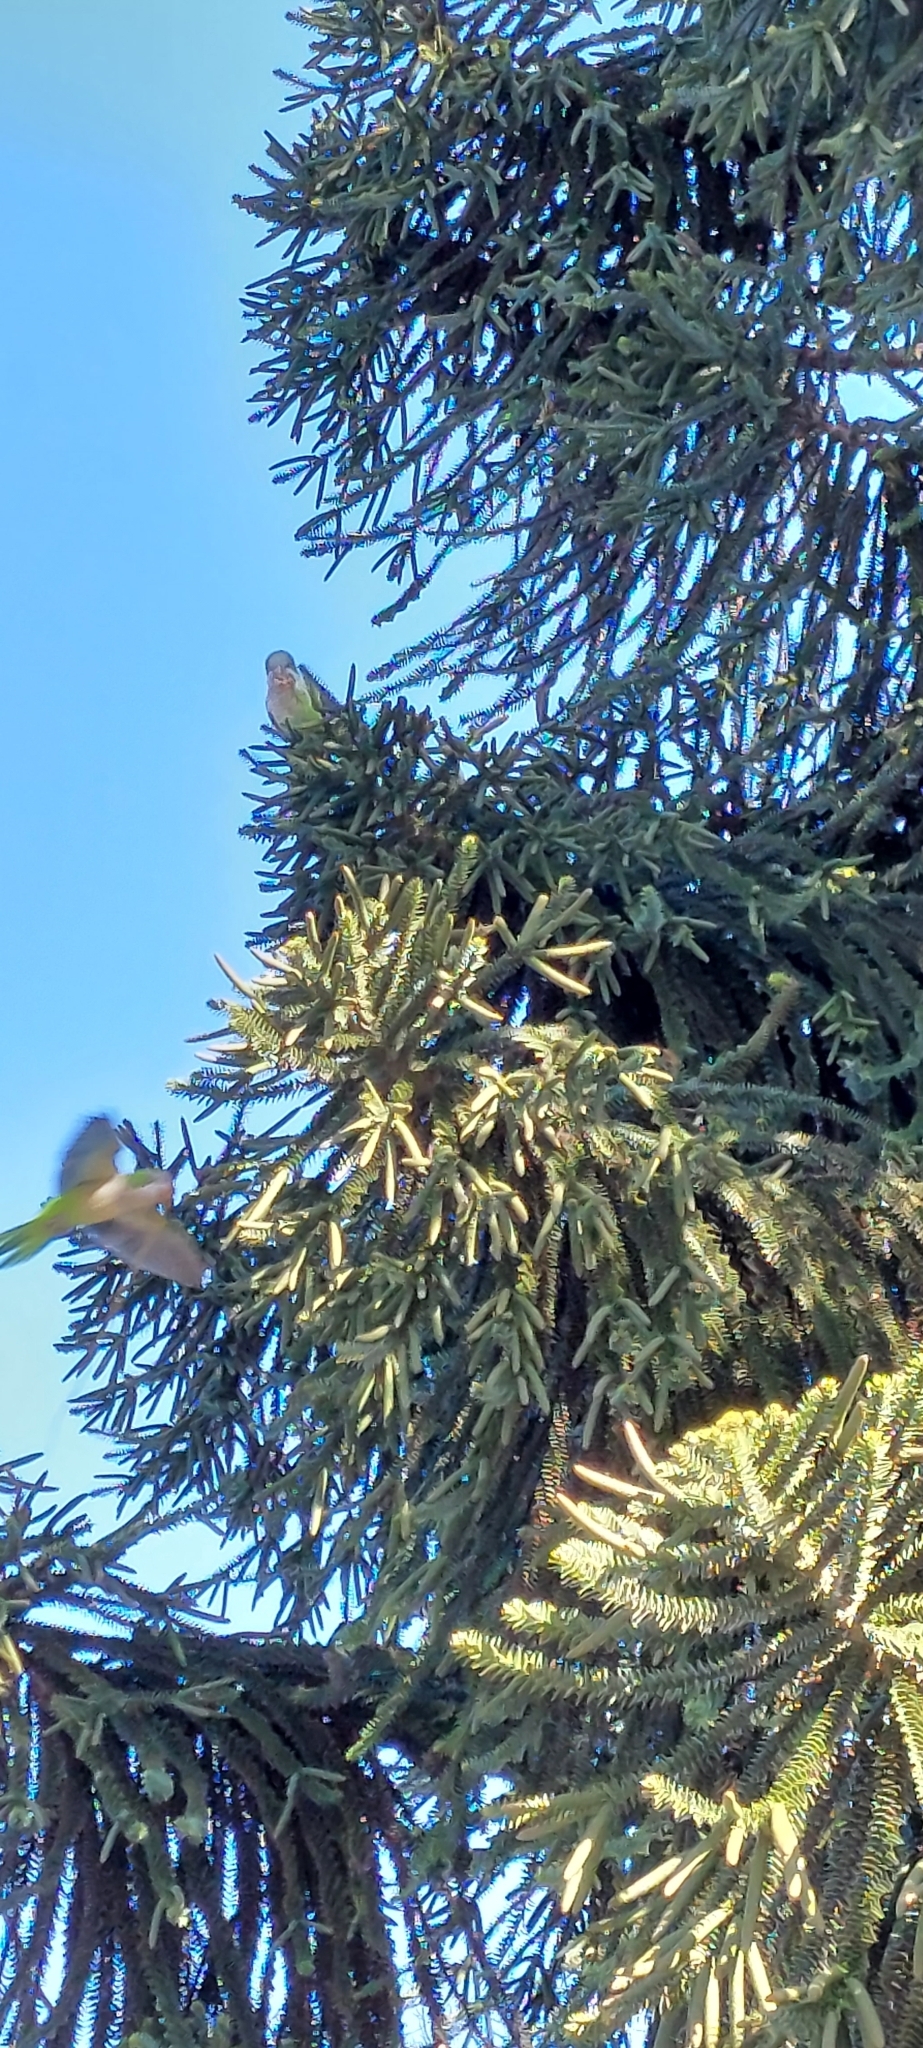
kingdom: Animalia
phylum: Chordata
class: Aves
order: Psittaciformes
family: Psittacidae
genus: Myiopsitta
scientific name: Myiopsitta monachus
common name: Monk parakeet
